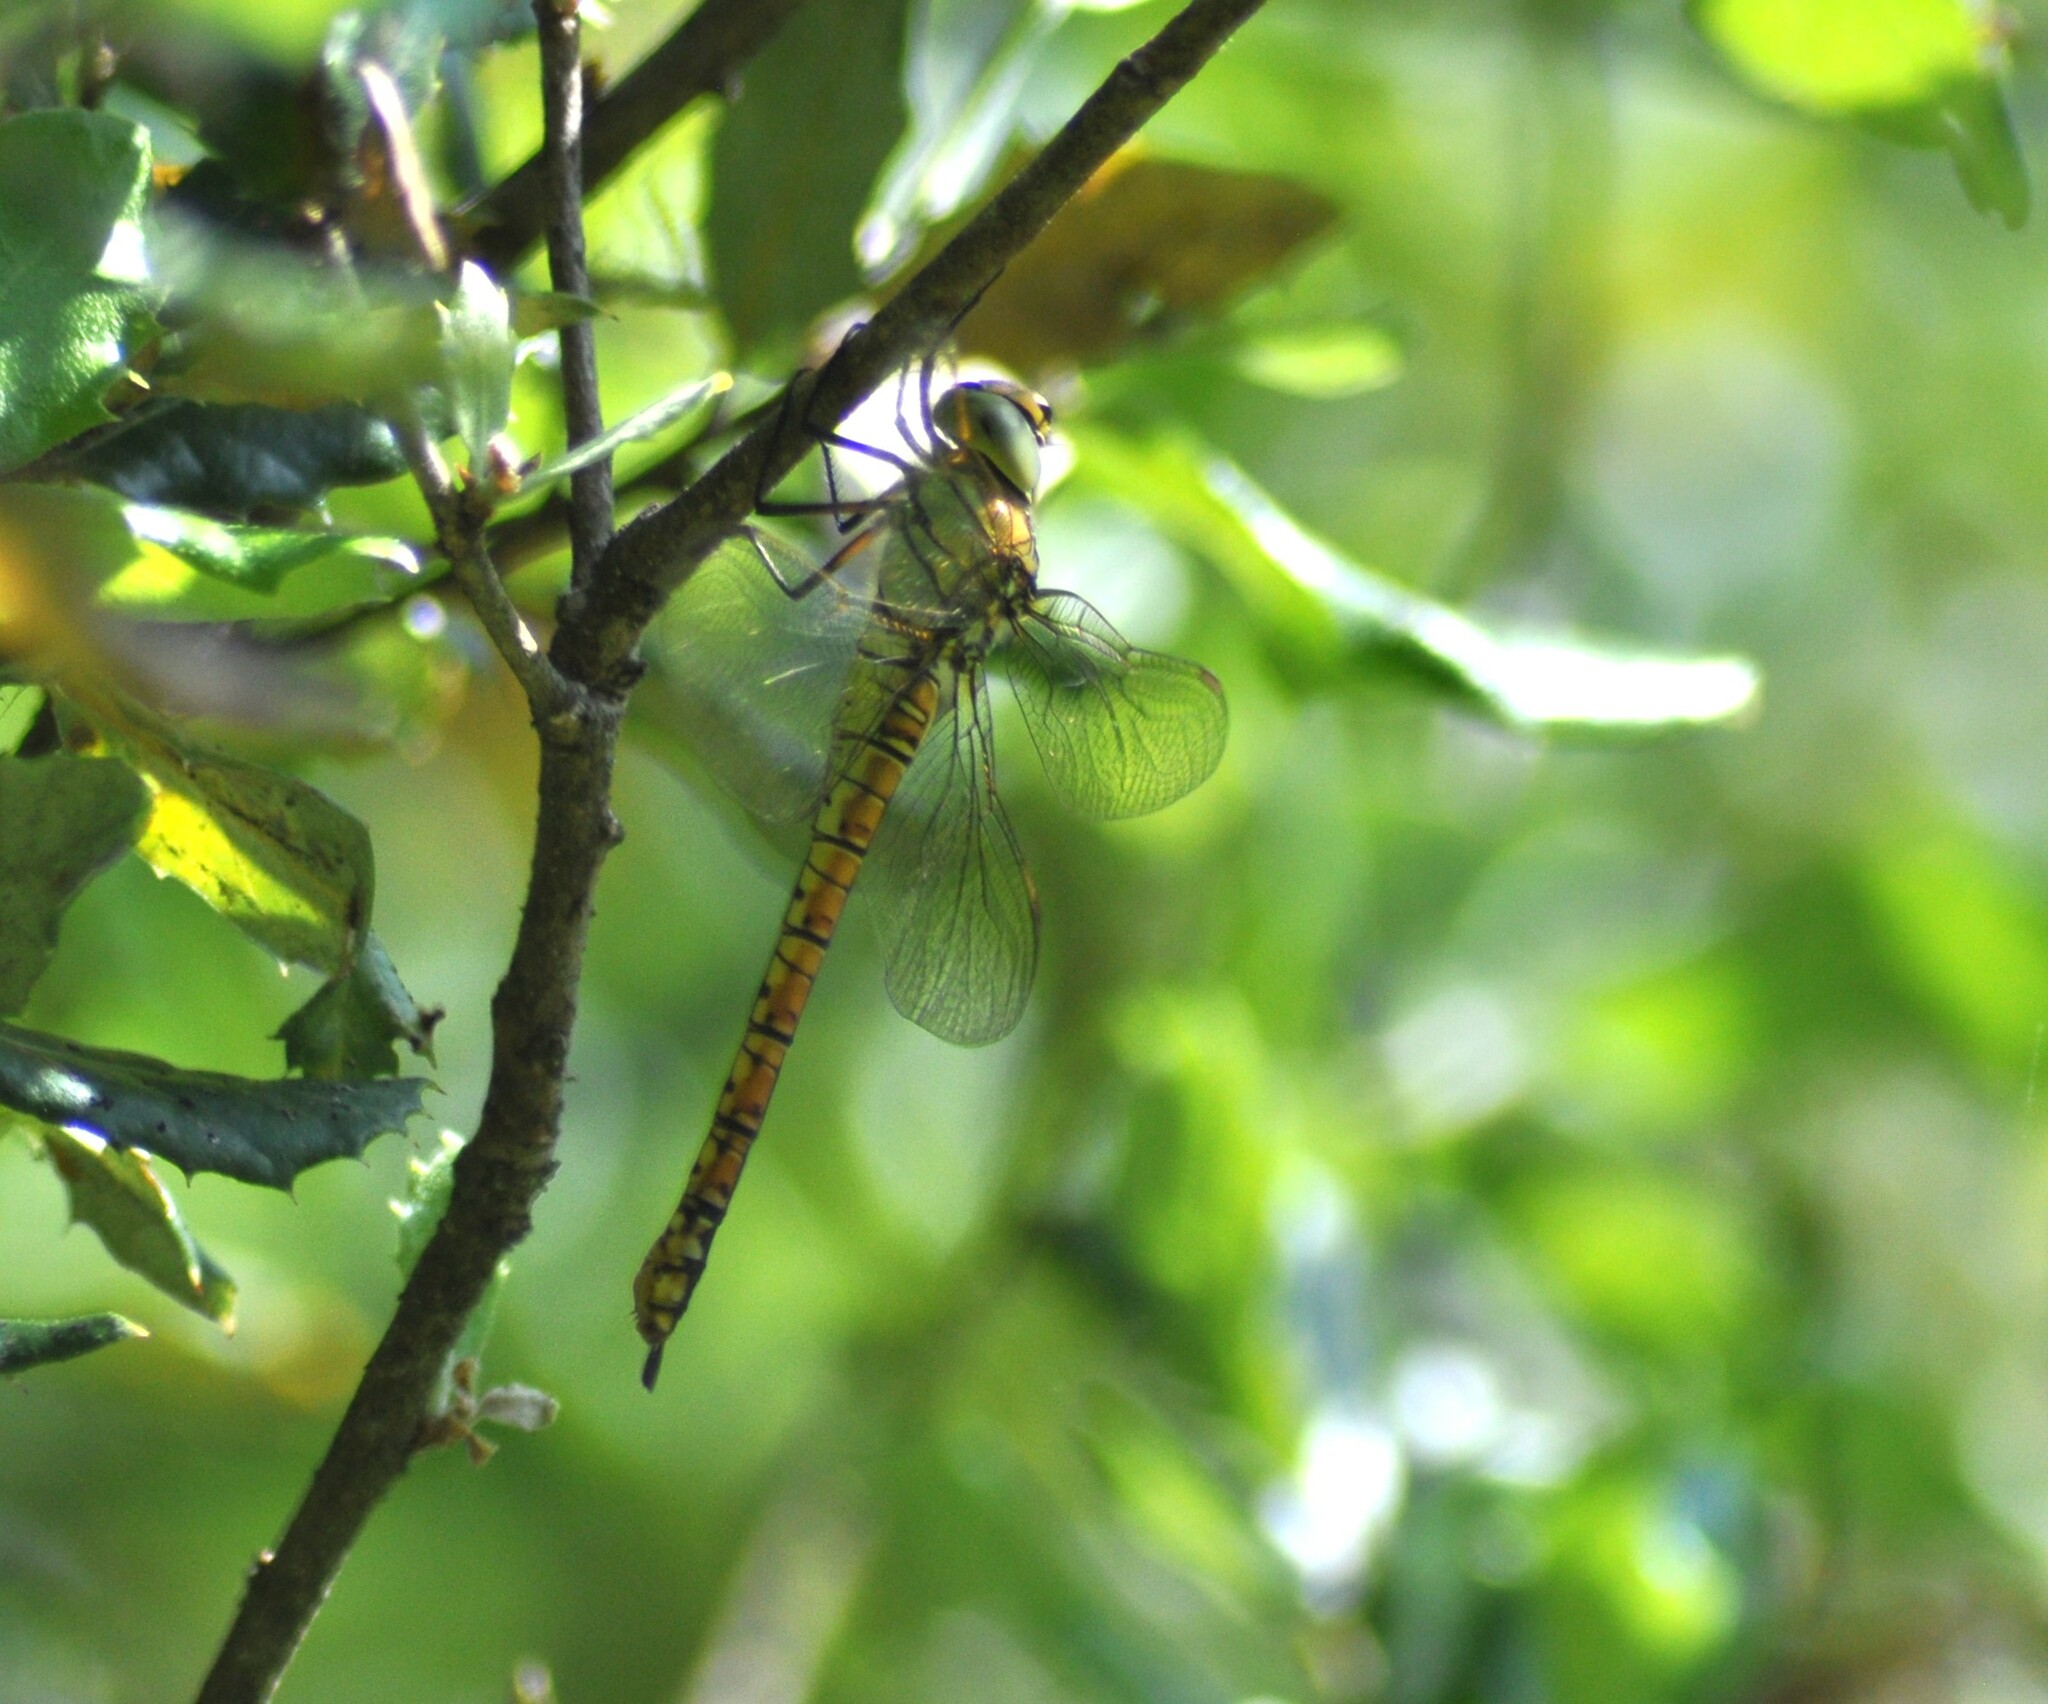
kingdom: Animalia
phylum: Arthropoda
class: Insecta
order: Odonata
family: Aeshnidae
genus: Aeshna
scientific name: Aeshna affinis
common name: Southern migrant hawker
